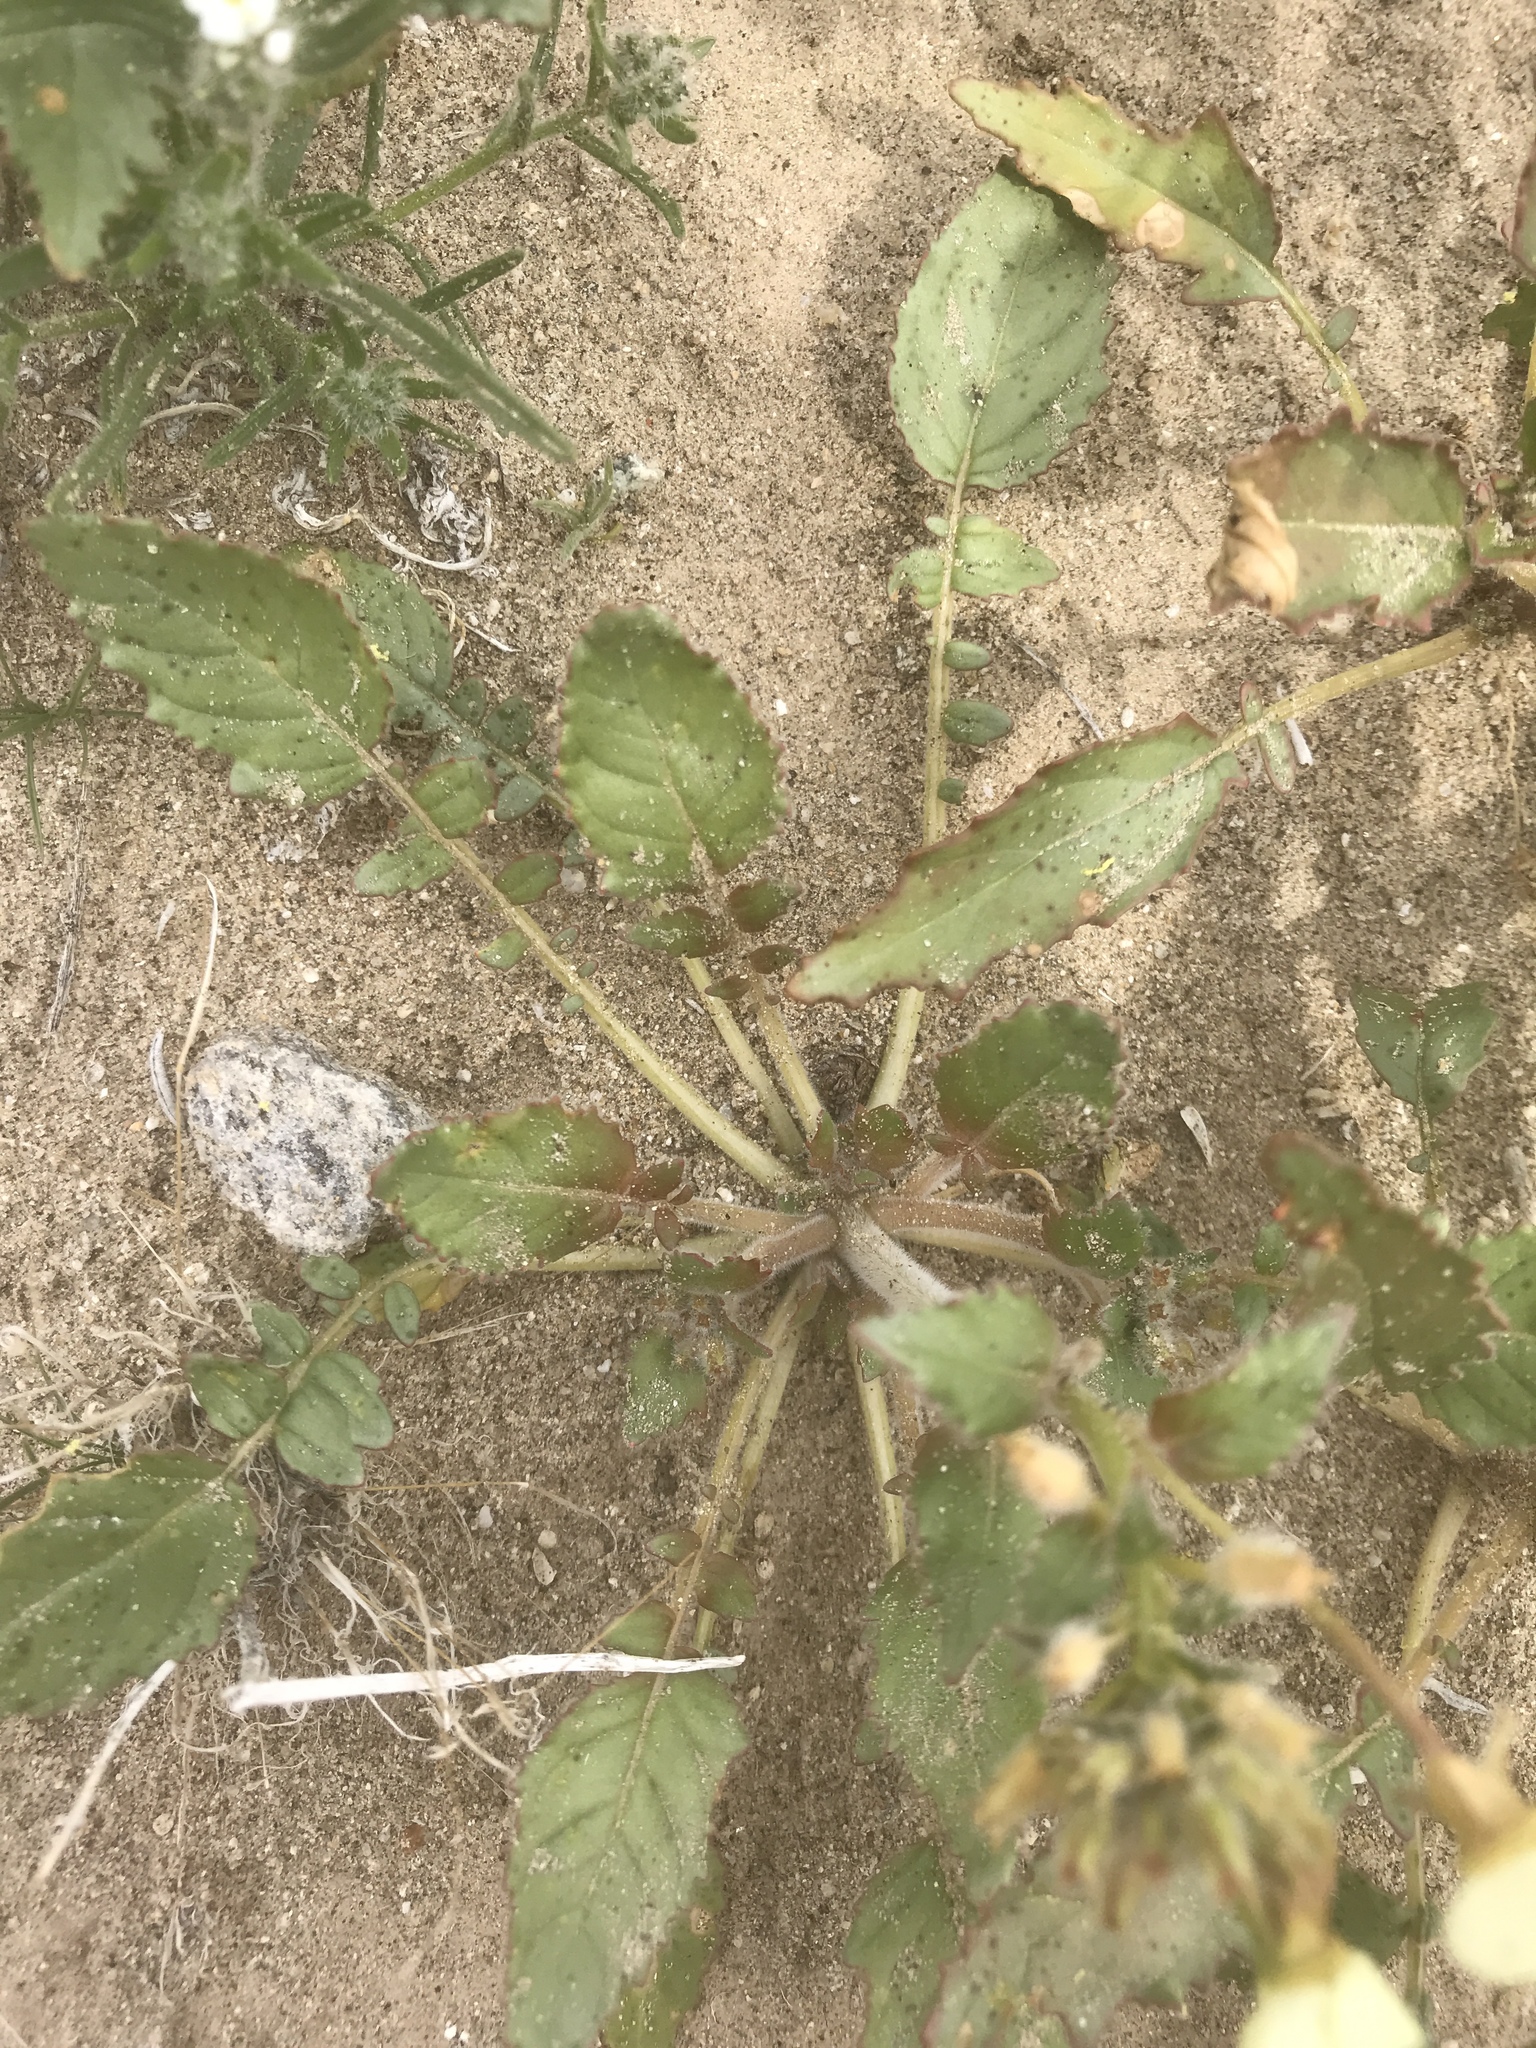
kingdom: Plantae
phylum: Tracheophyta
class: Magnoliopsida
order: Myrtales
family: Onagraceae
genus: Chylismia
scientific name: Chylismia claviformis
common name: Browneyes
